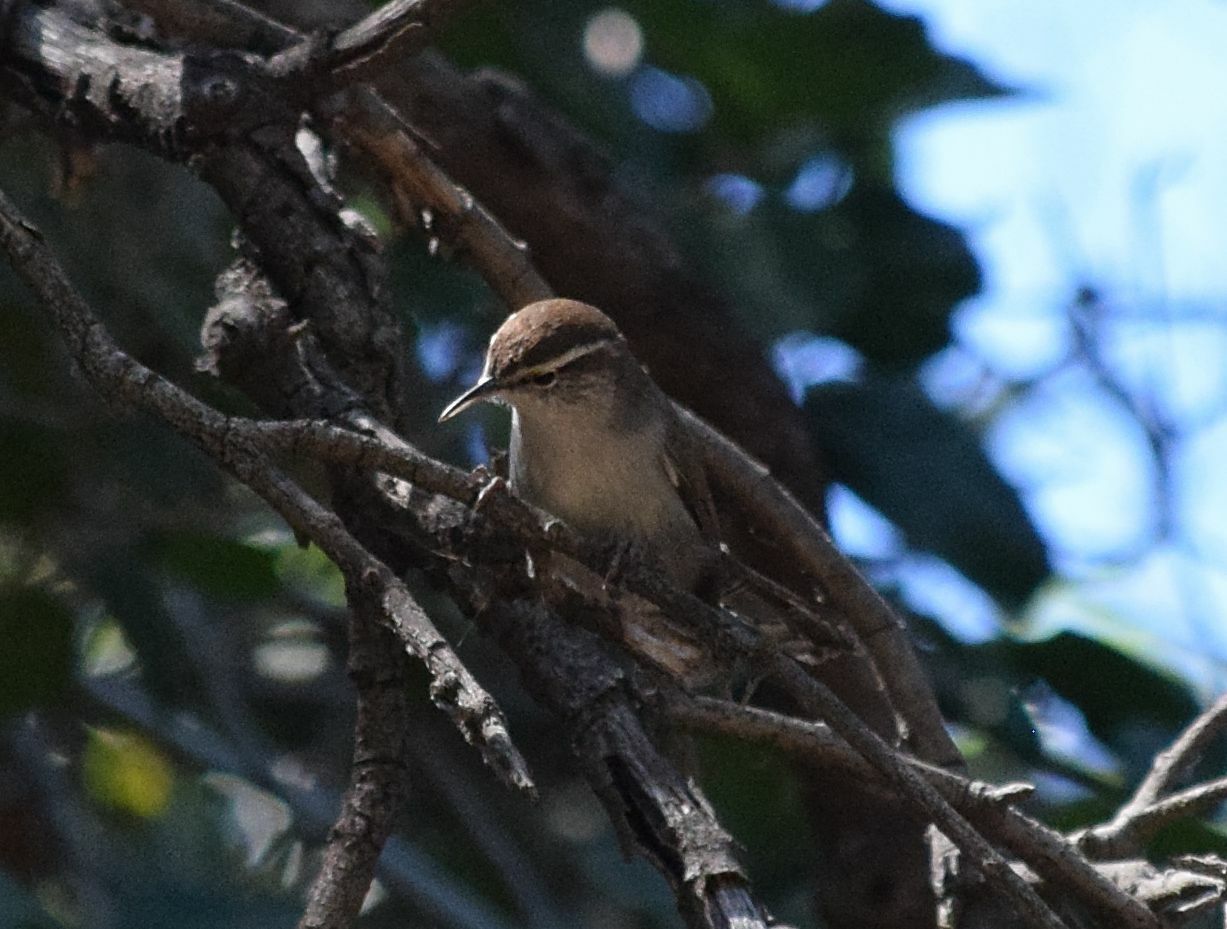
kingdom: Animalia
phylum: Chordata
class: Aves
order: Passeriformes
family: Troglodytidae
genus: Thryomanes
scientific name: Thryomanes bewickii
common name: Bewick's wren
